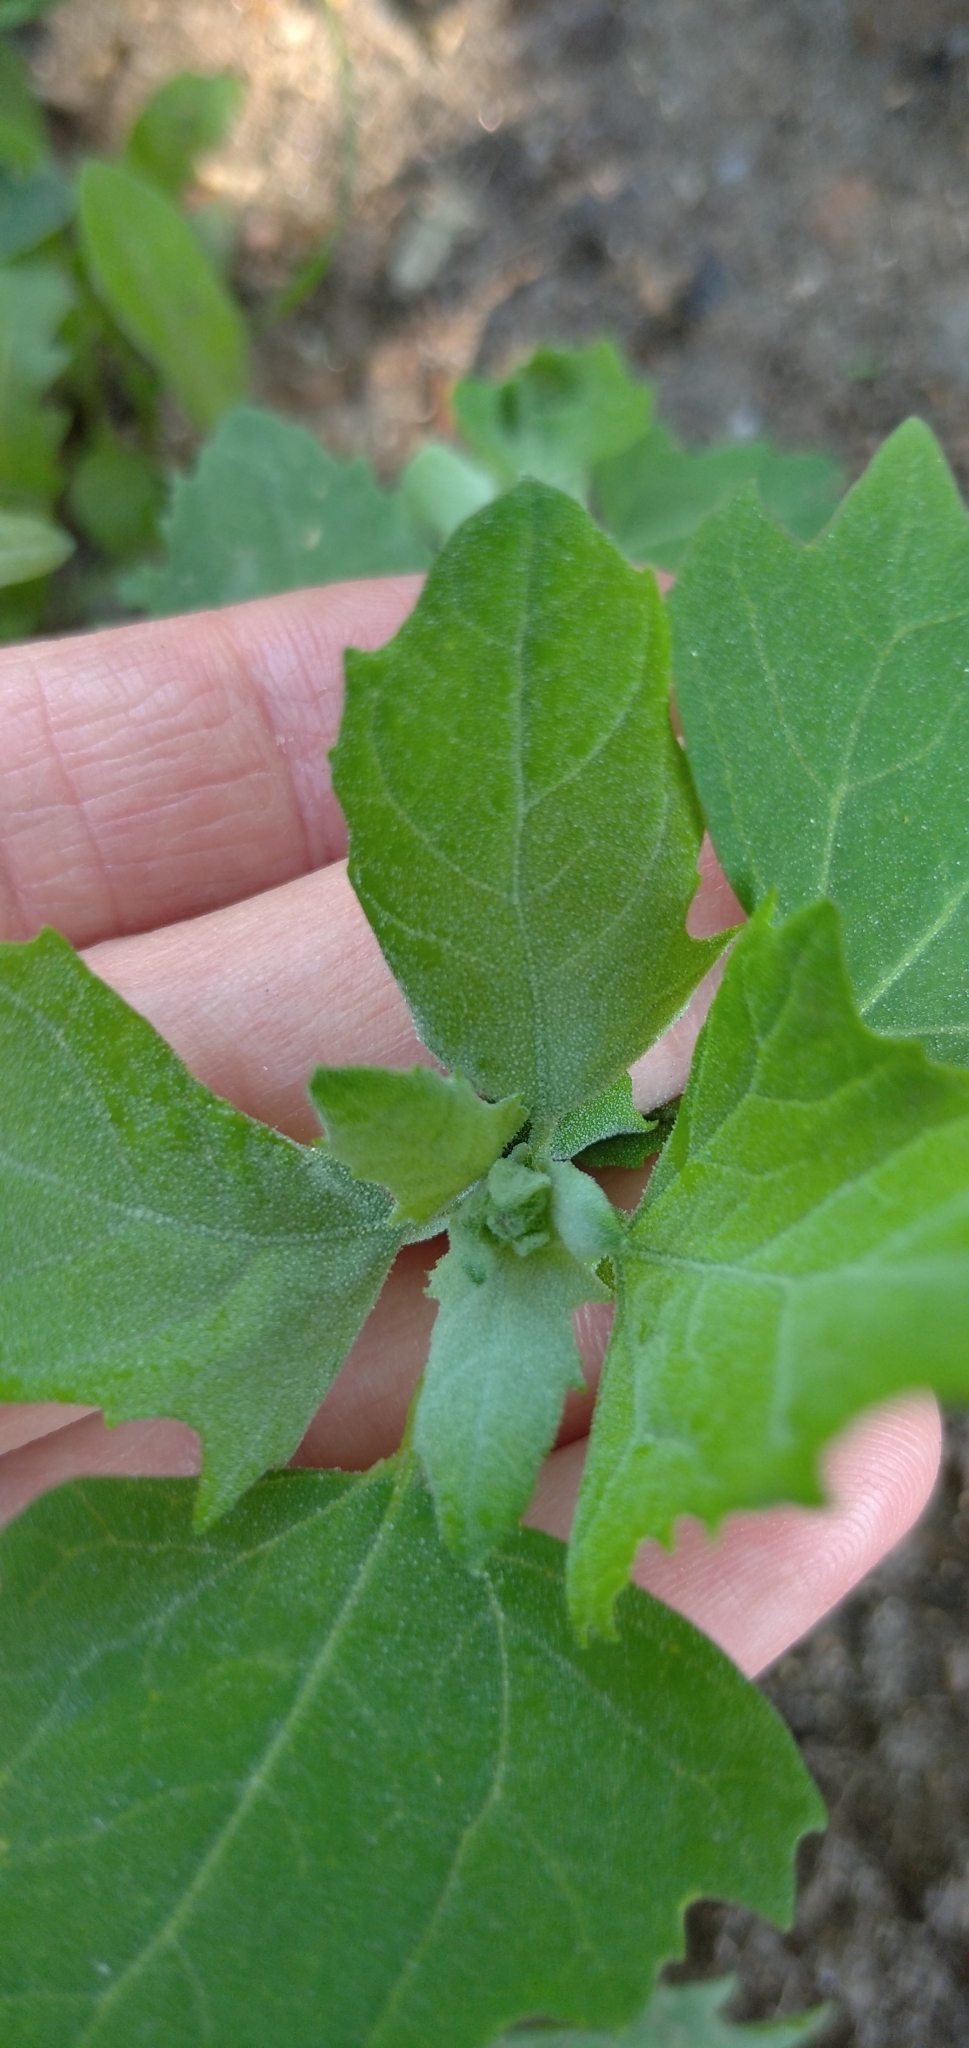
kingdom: Plantae
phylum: Tracheophyta
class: Magnoliopsida
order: Caryophyllales
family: Amaranthaceae
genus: Chenopodium
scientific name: Chenopodium album
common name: Fat-hen
